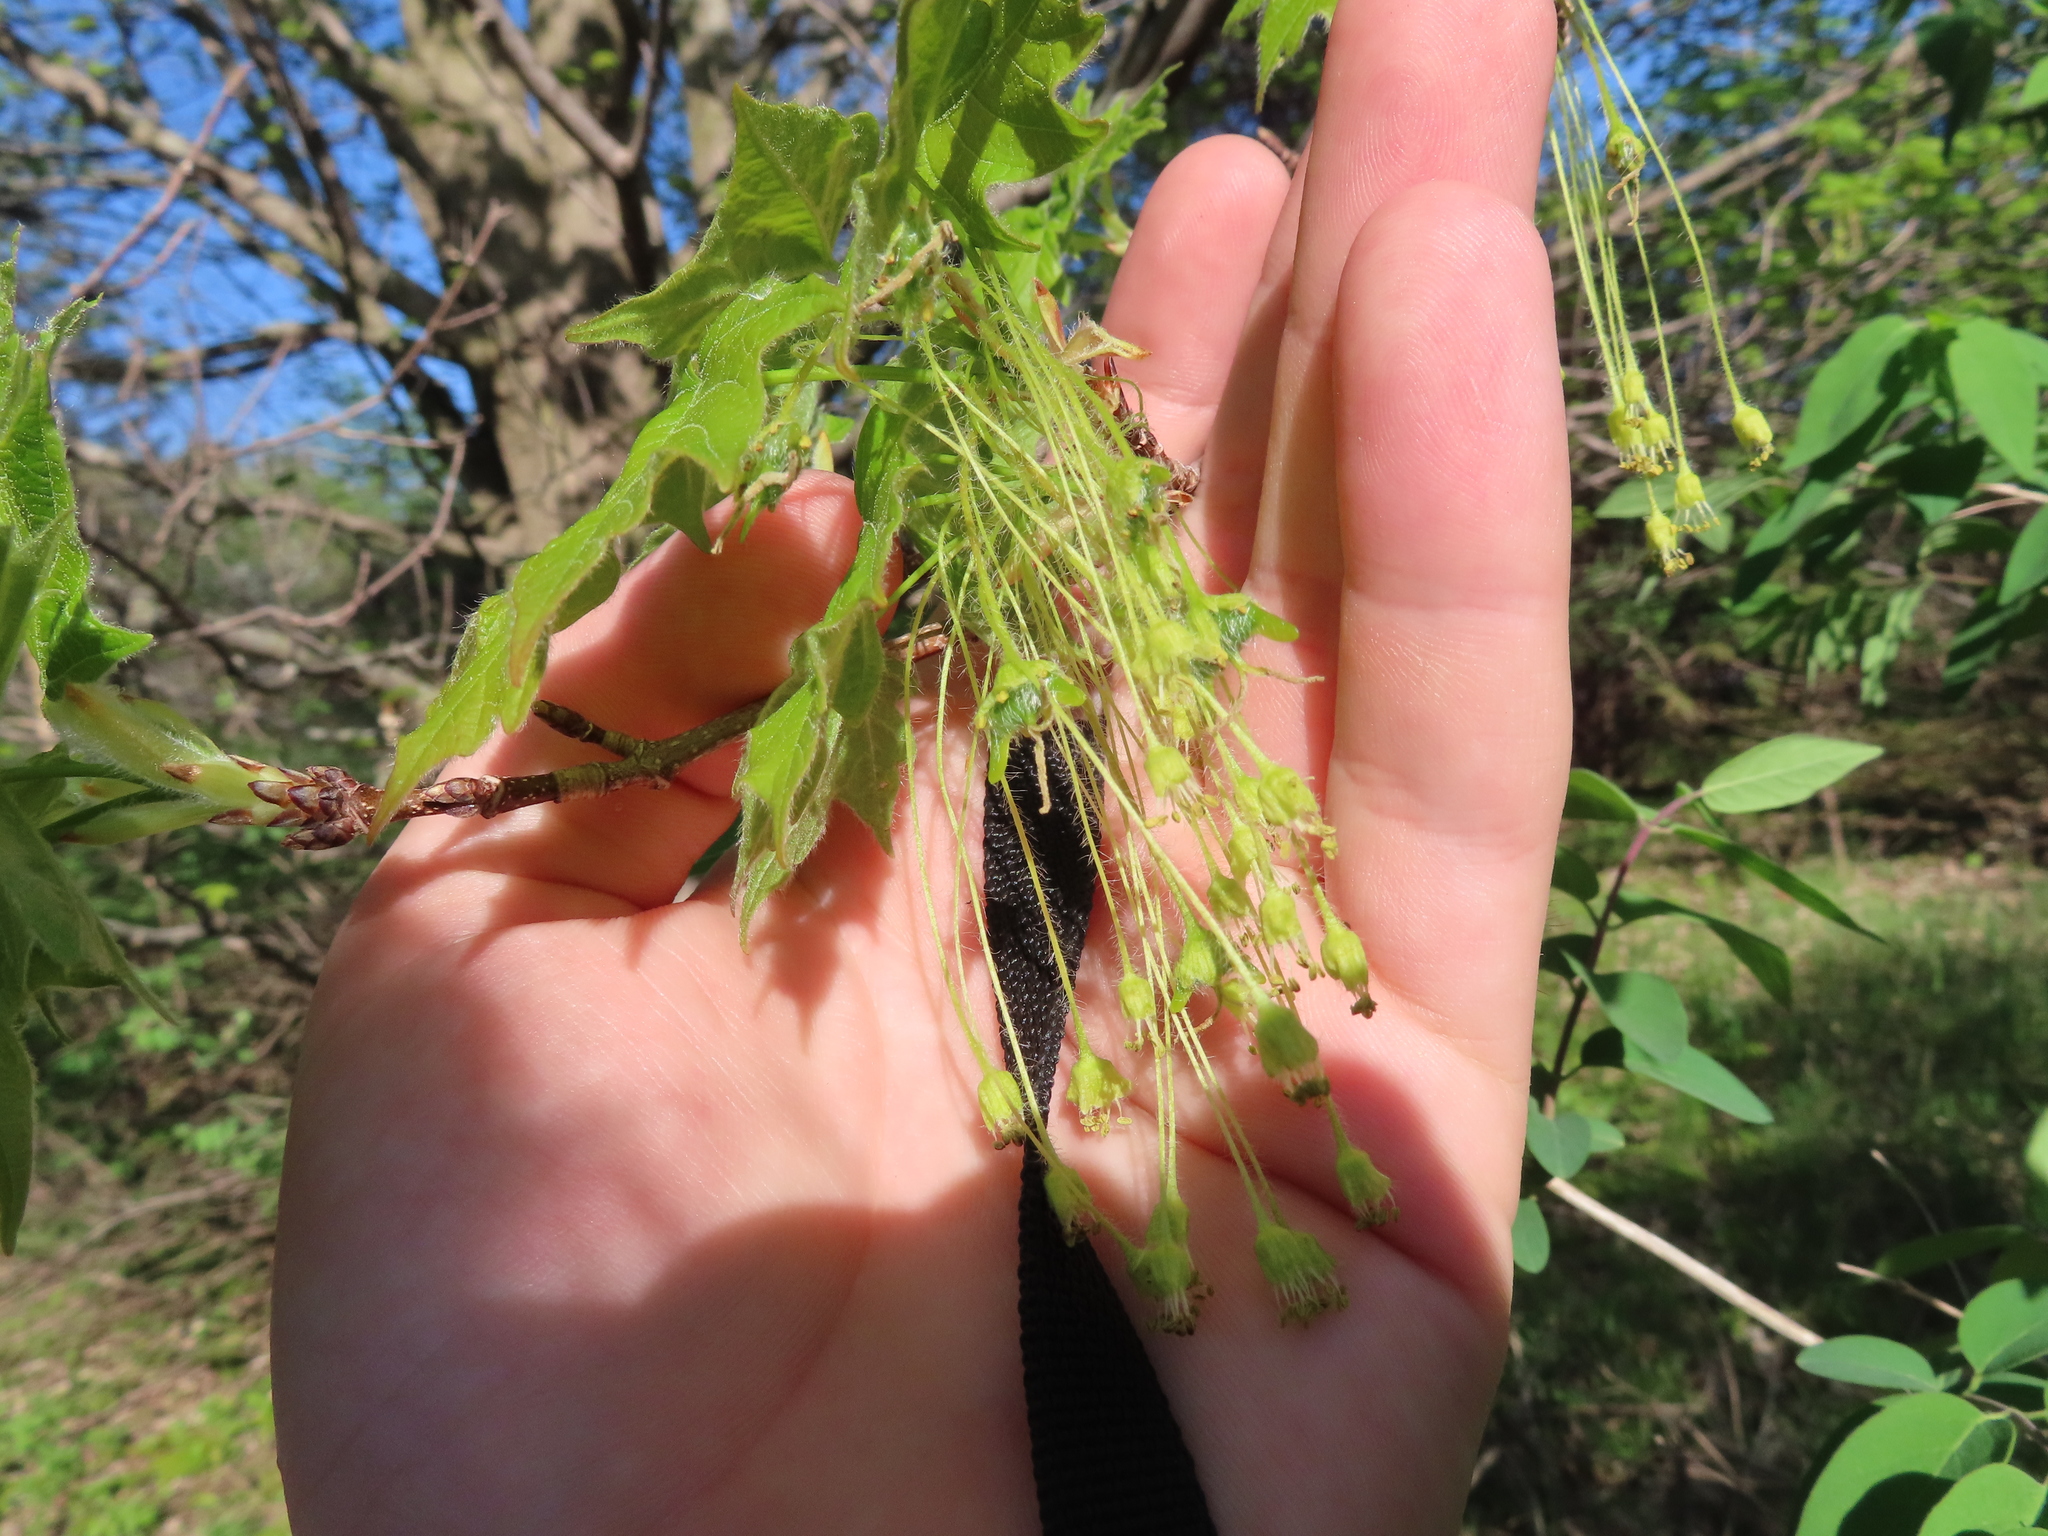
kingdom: Plantae
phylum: Tracheophyta
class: Magnoliopsida
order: Sapindales
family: Sapindaceae
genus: Acer
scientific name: Acer negundo
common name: Ashleaf maple
